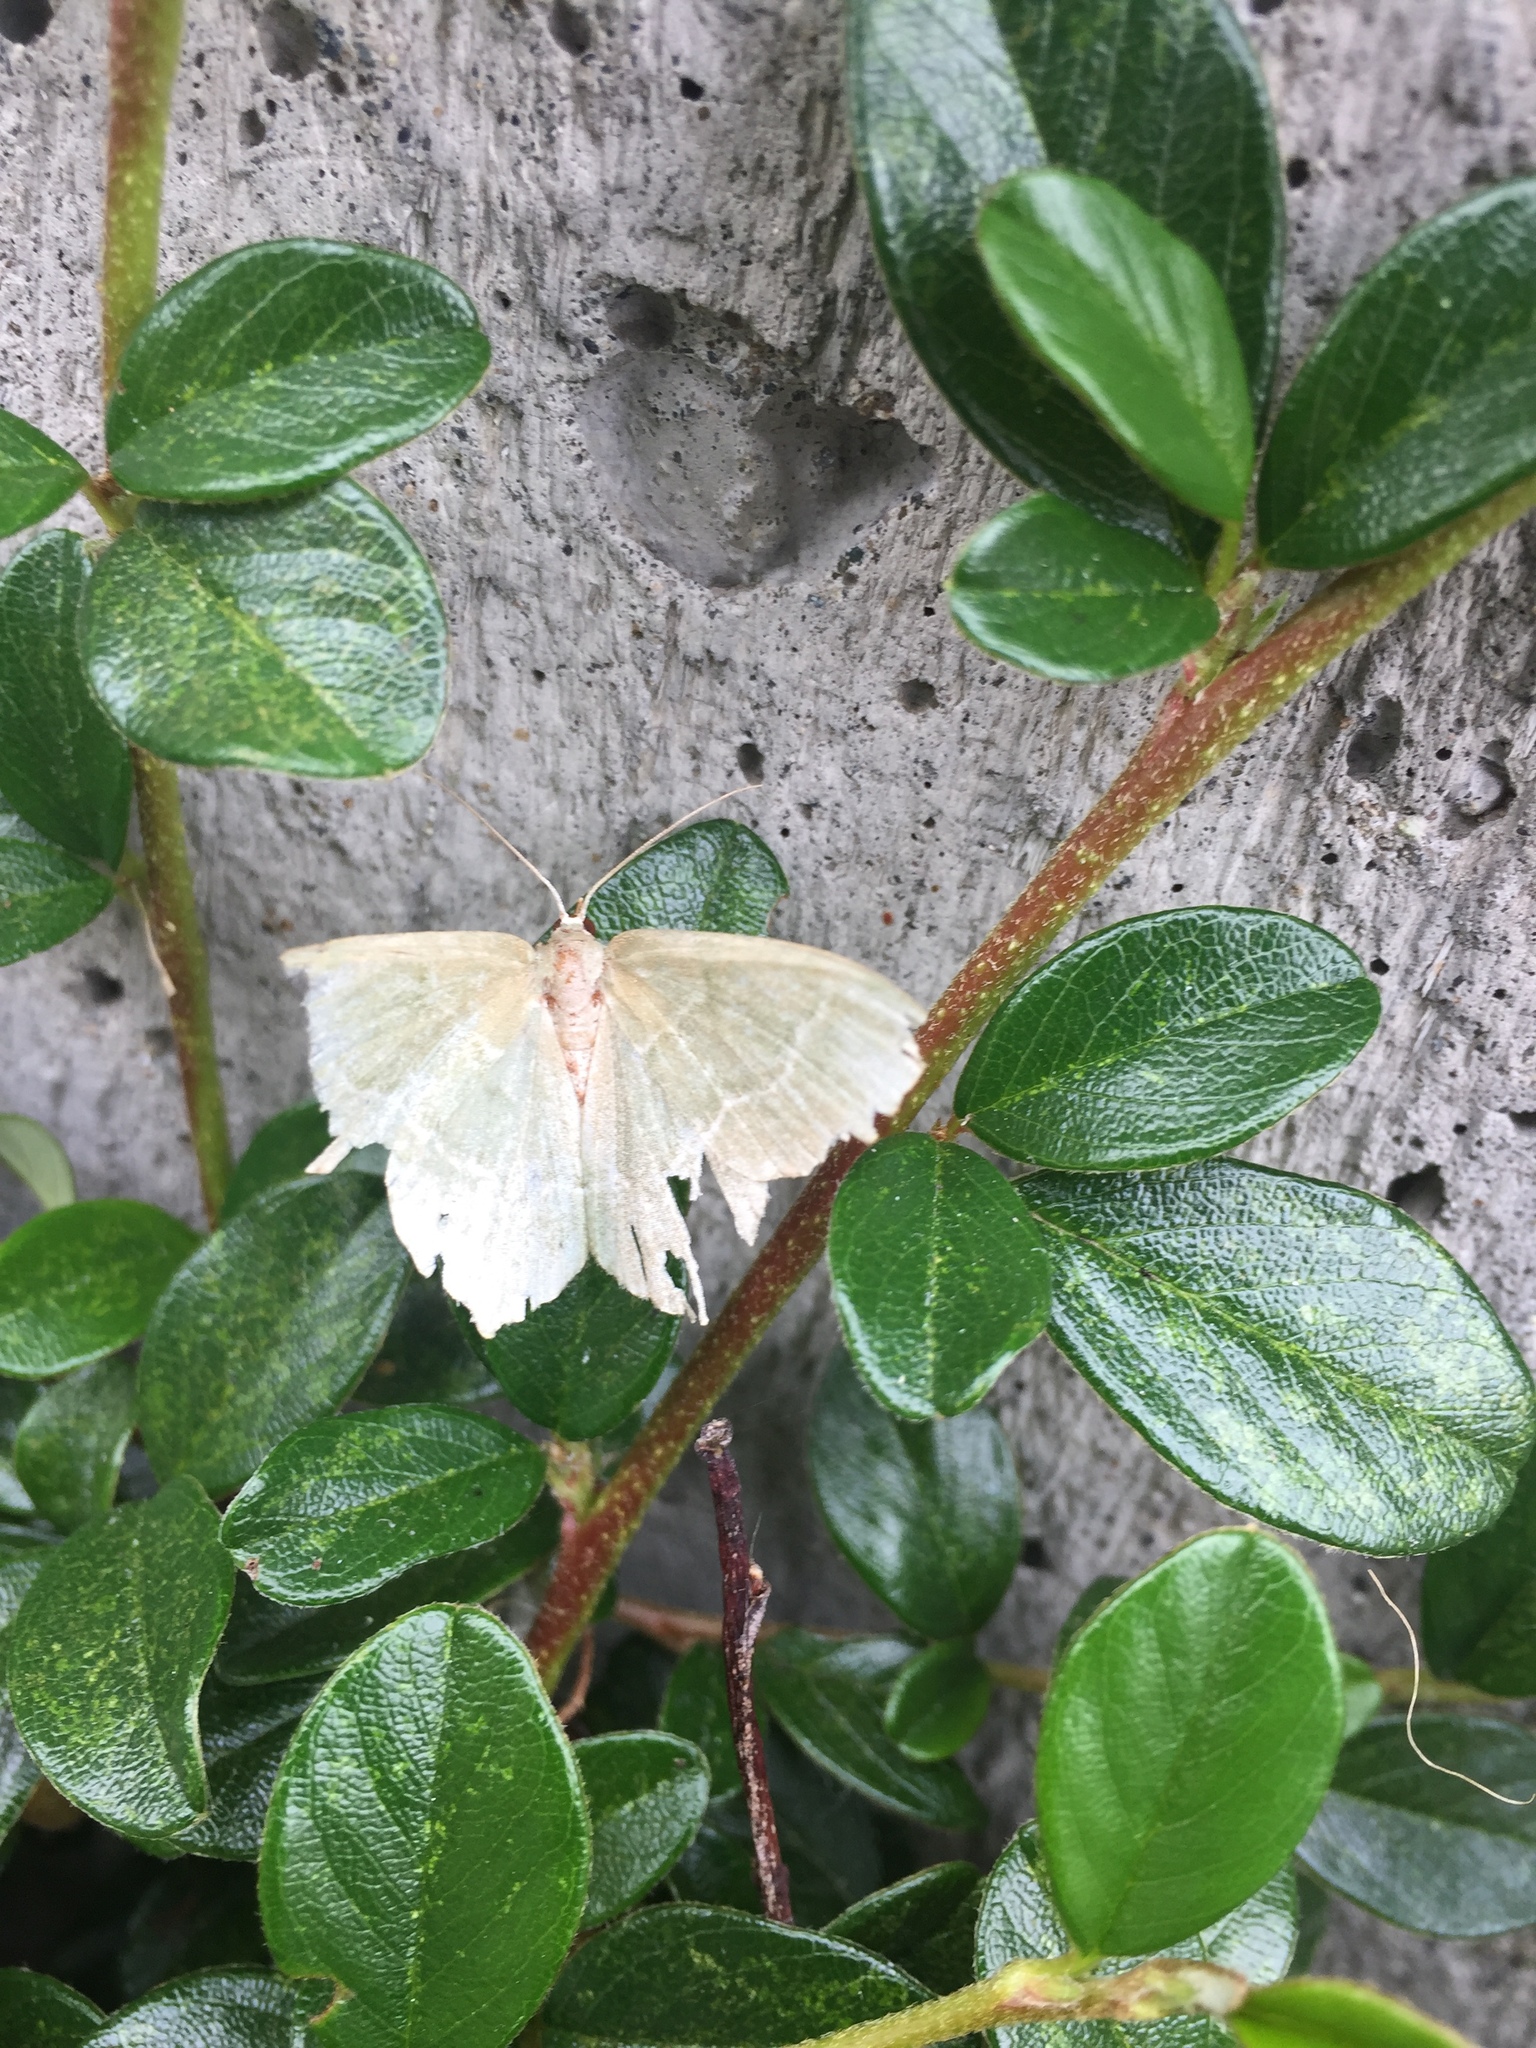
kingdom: Animalia
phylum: Arthropoda
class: Insecta
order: Lepidoptera
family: Geometridae
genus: Hemithea
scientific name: Hemithea aestivaria
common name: Common emerald
